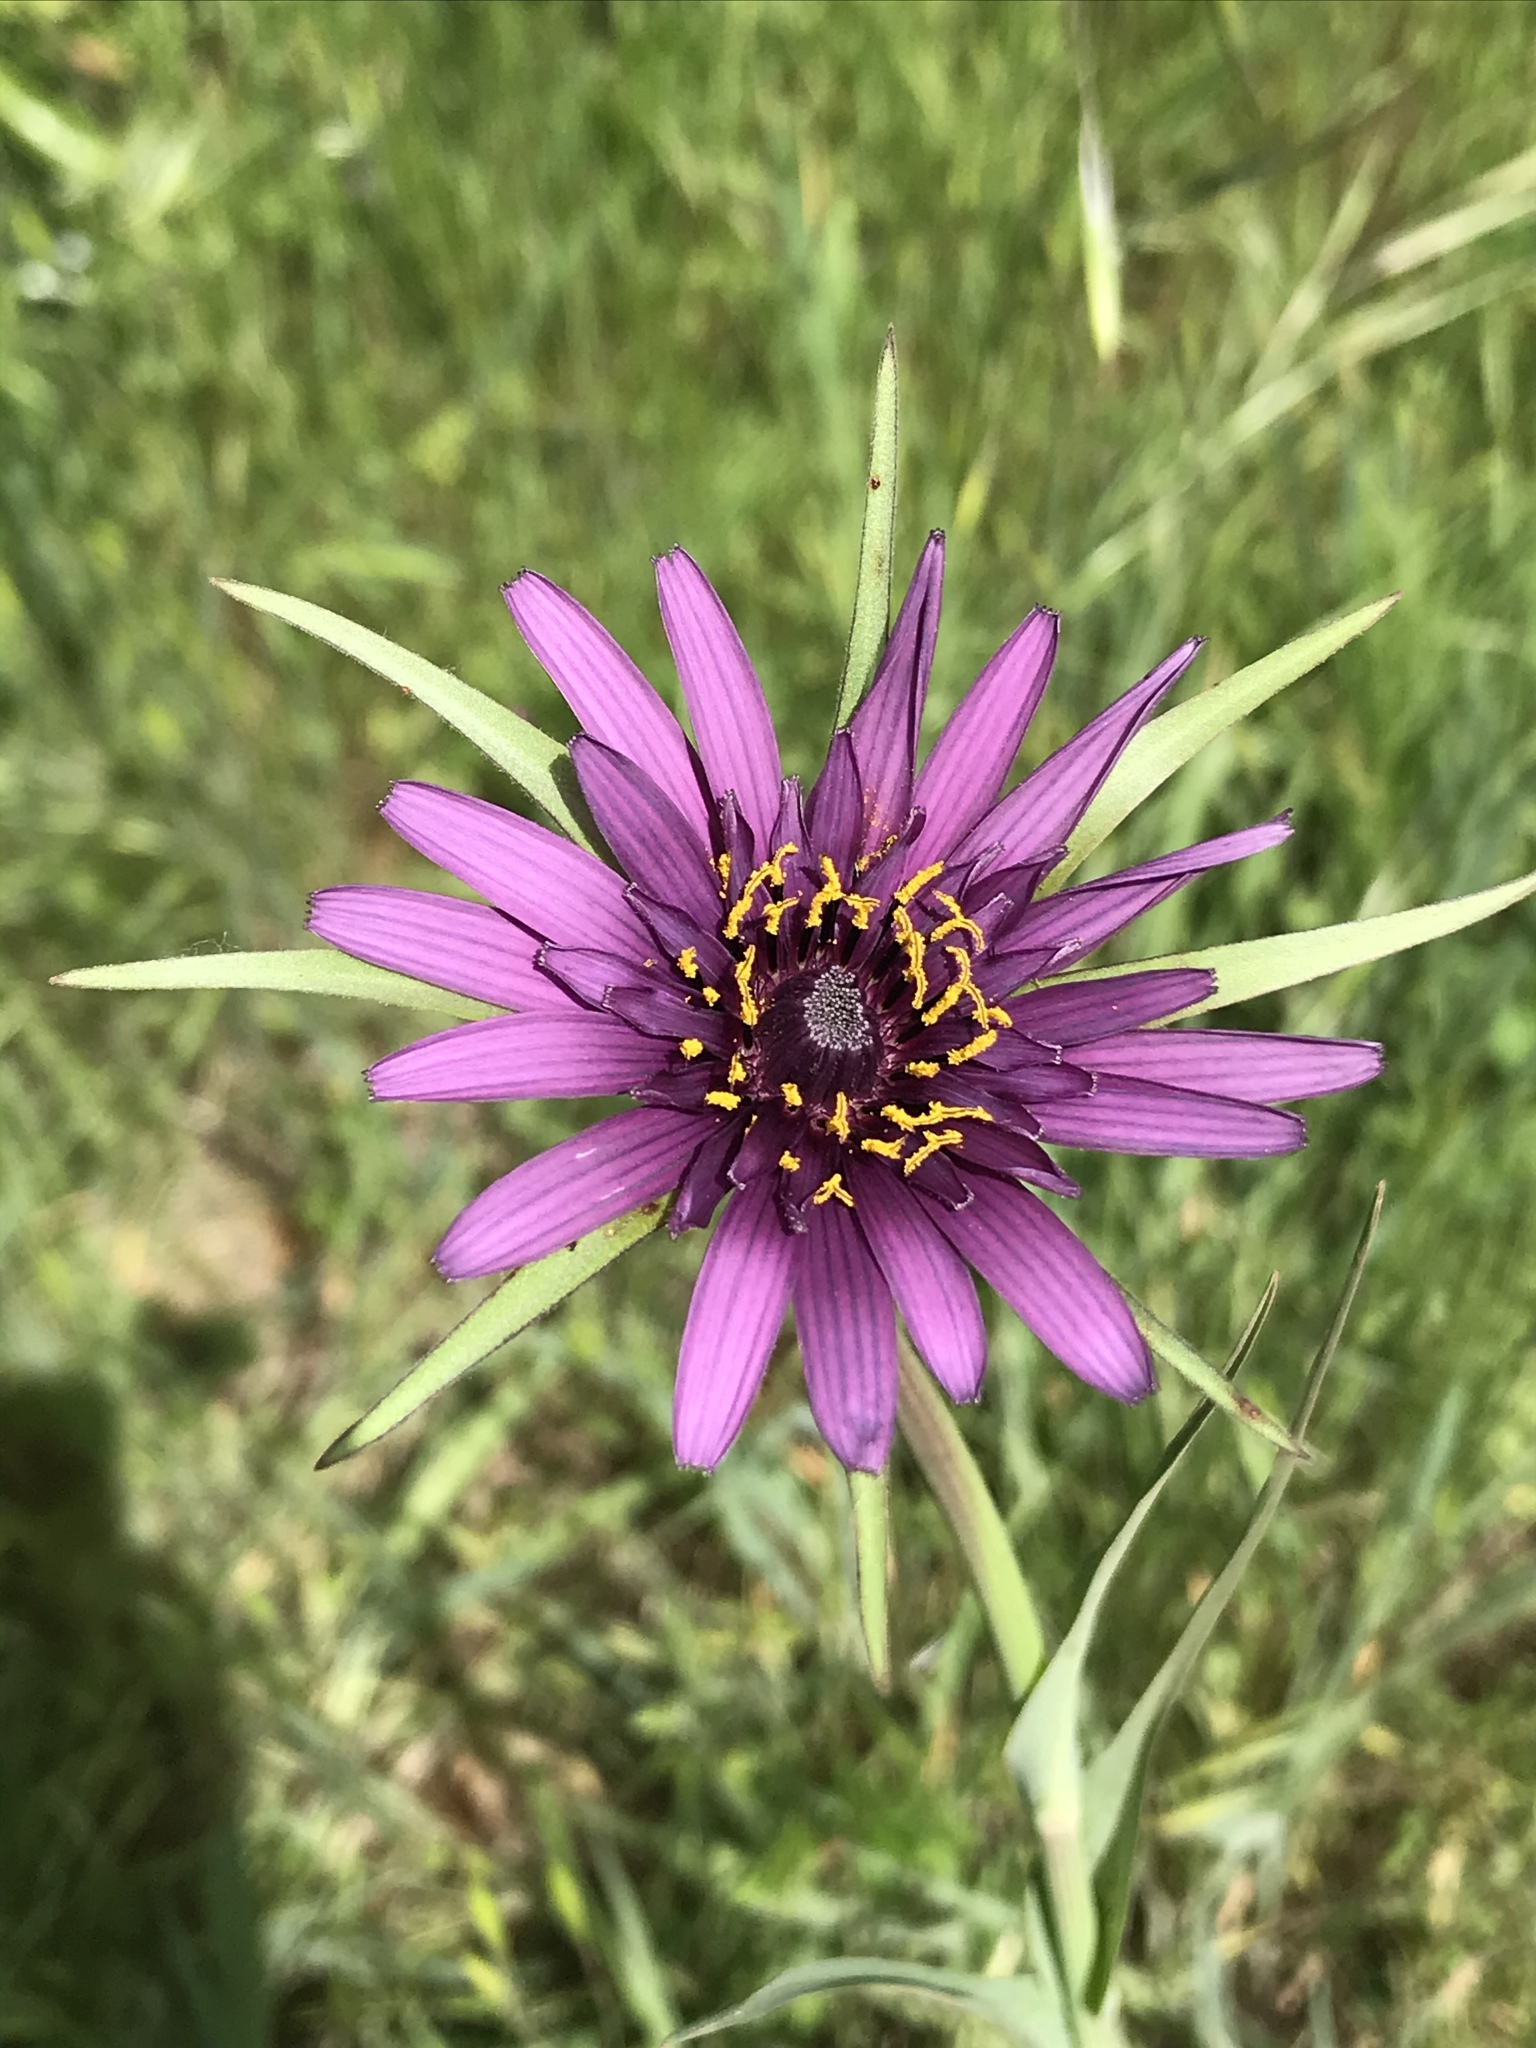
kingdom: Plantae
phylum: Tracheophyta
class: Magnoliopsida
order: Asterales
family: Asteraceae
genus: Tragopogon
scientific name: Tragopogon porrifolius
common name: Salsify
